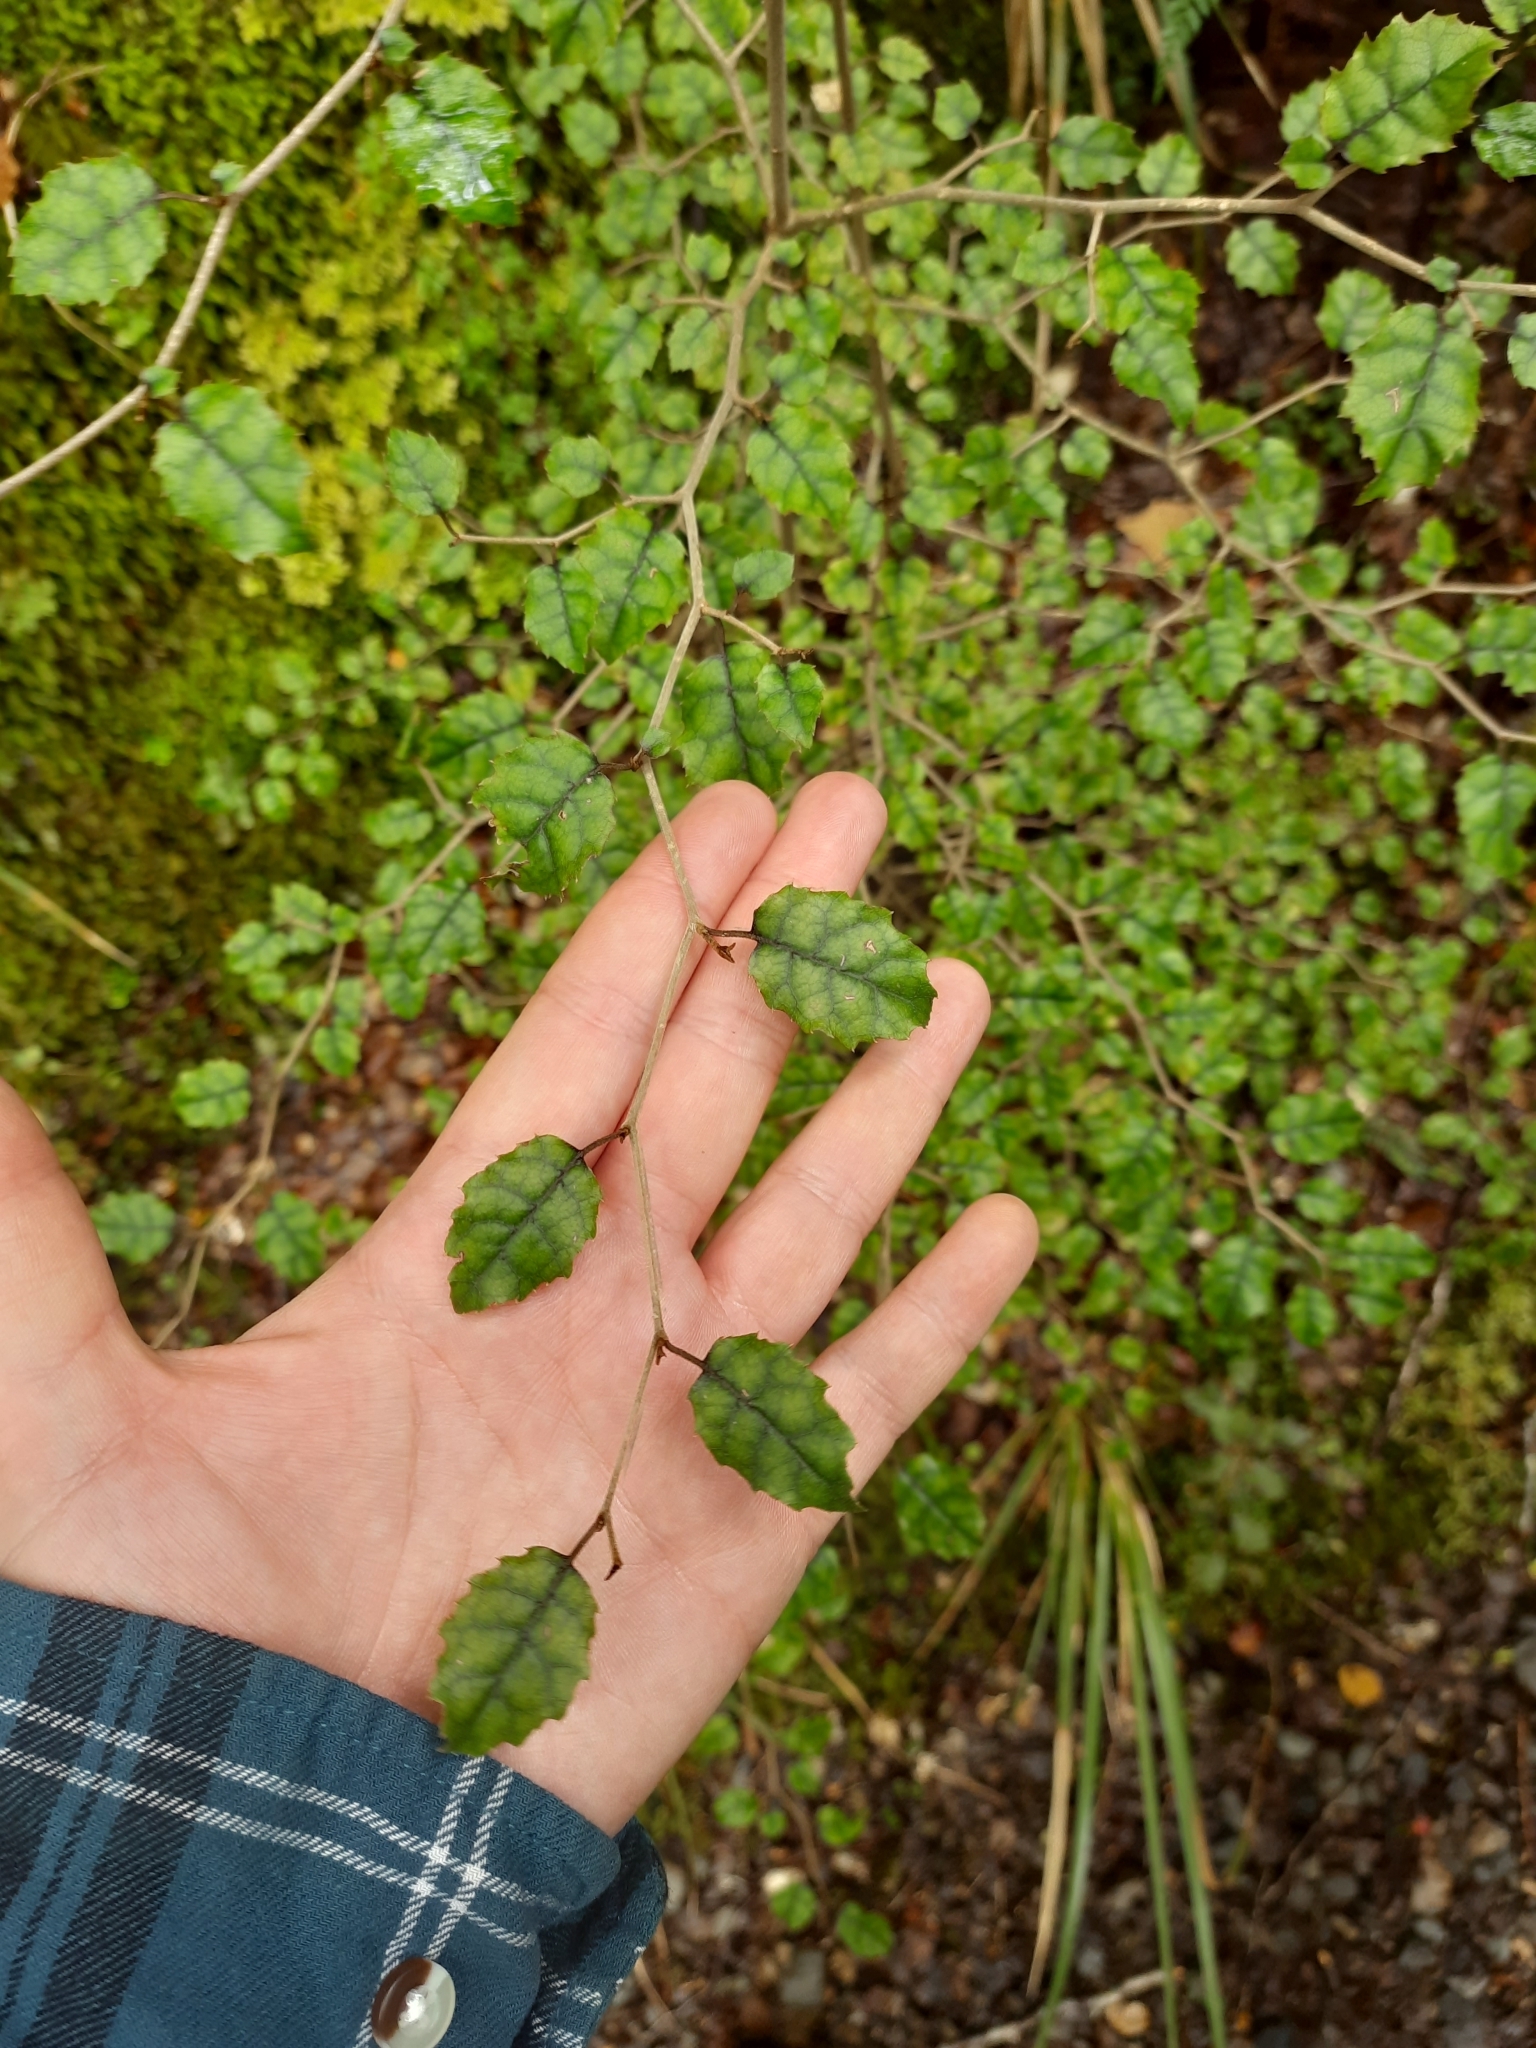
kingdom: Plantae
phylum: Tracheophyta
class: Magnoliopsida
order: Asterales
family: Rousseaceae
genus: Carpodetus
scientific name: Carpodetus serratus
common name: White mapau
